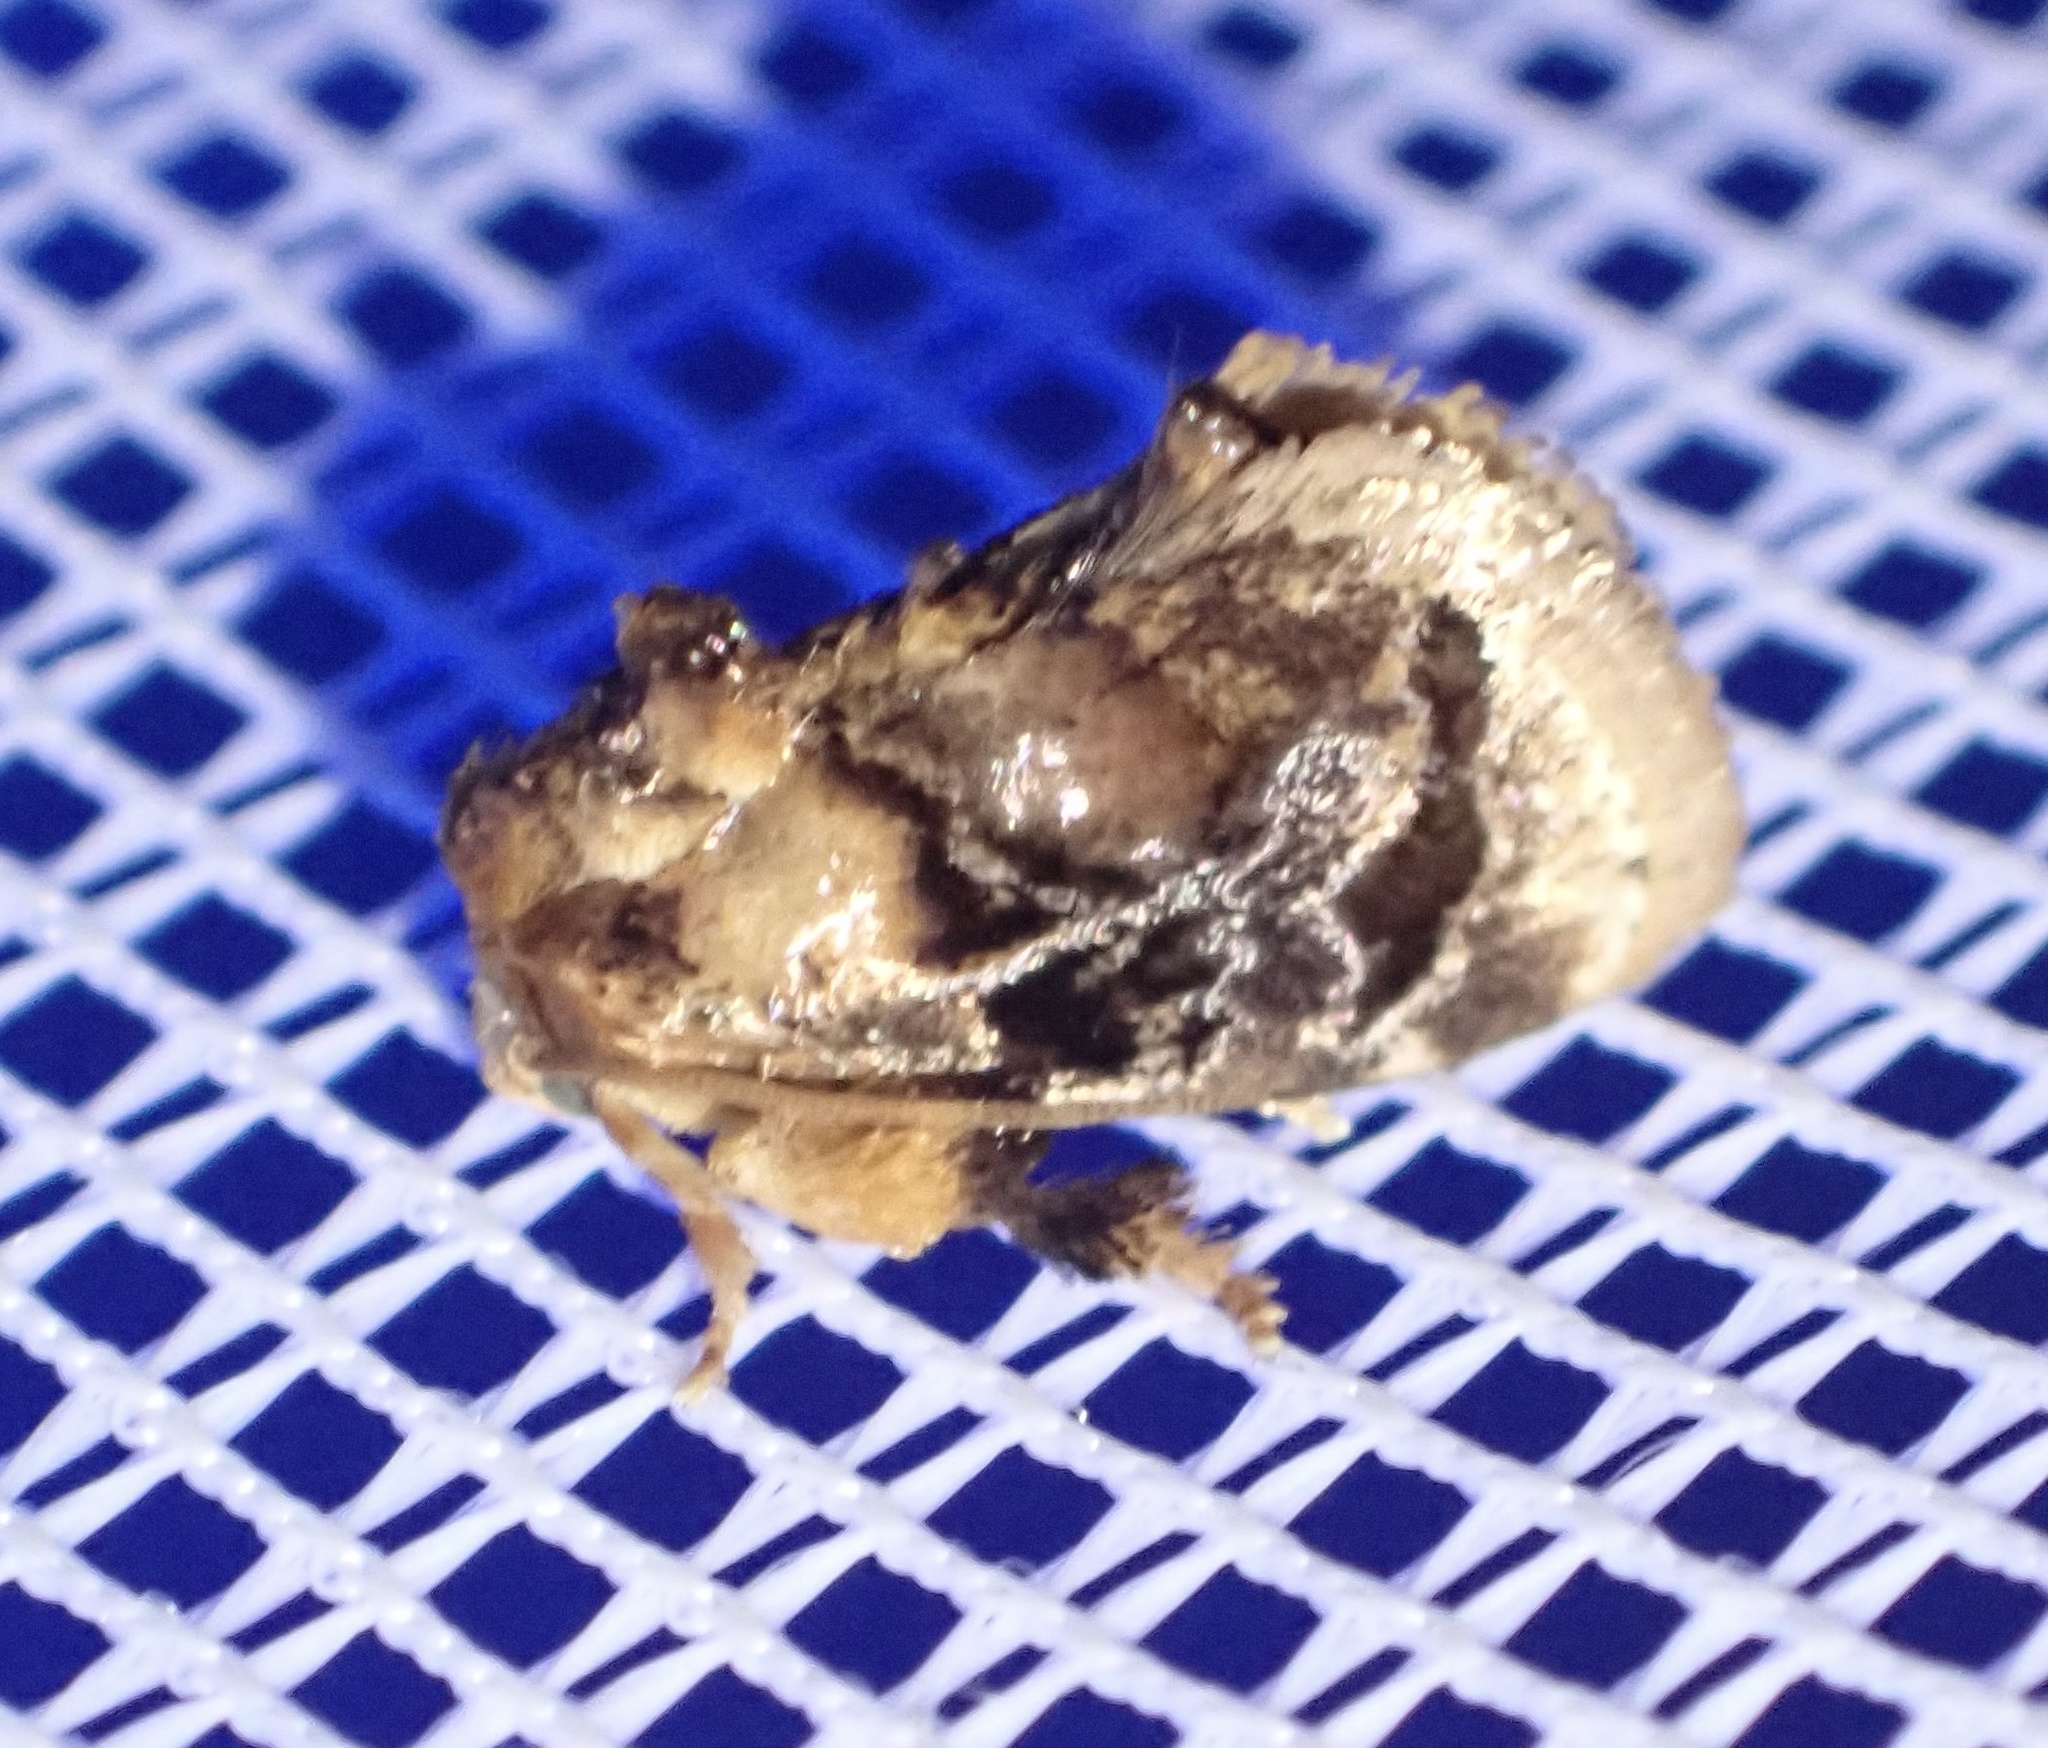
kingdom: Animalia
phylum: Arthropoda
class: Insecta
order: Lepidoptera
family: Limacodidae
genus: Neogavara
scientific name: Neogavara imitans
